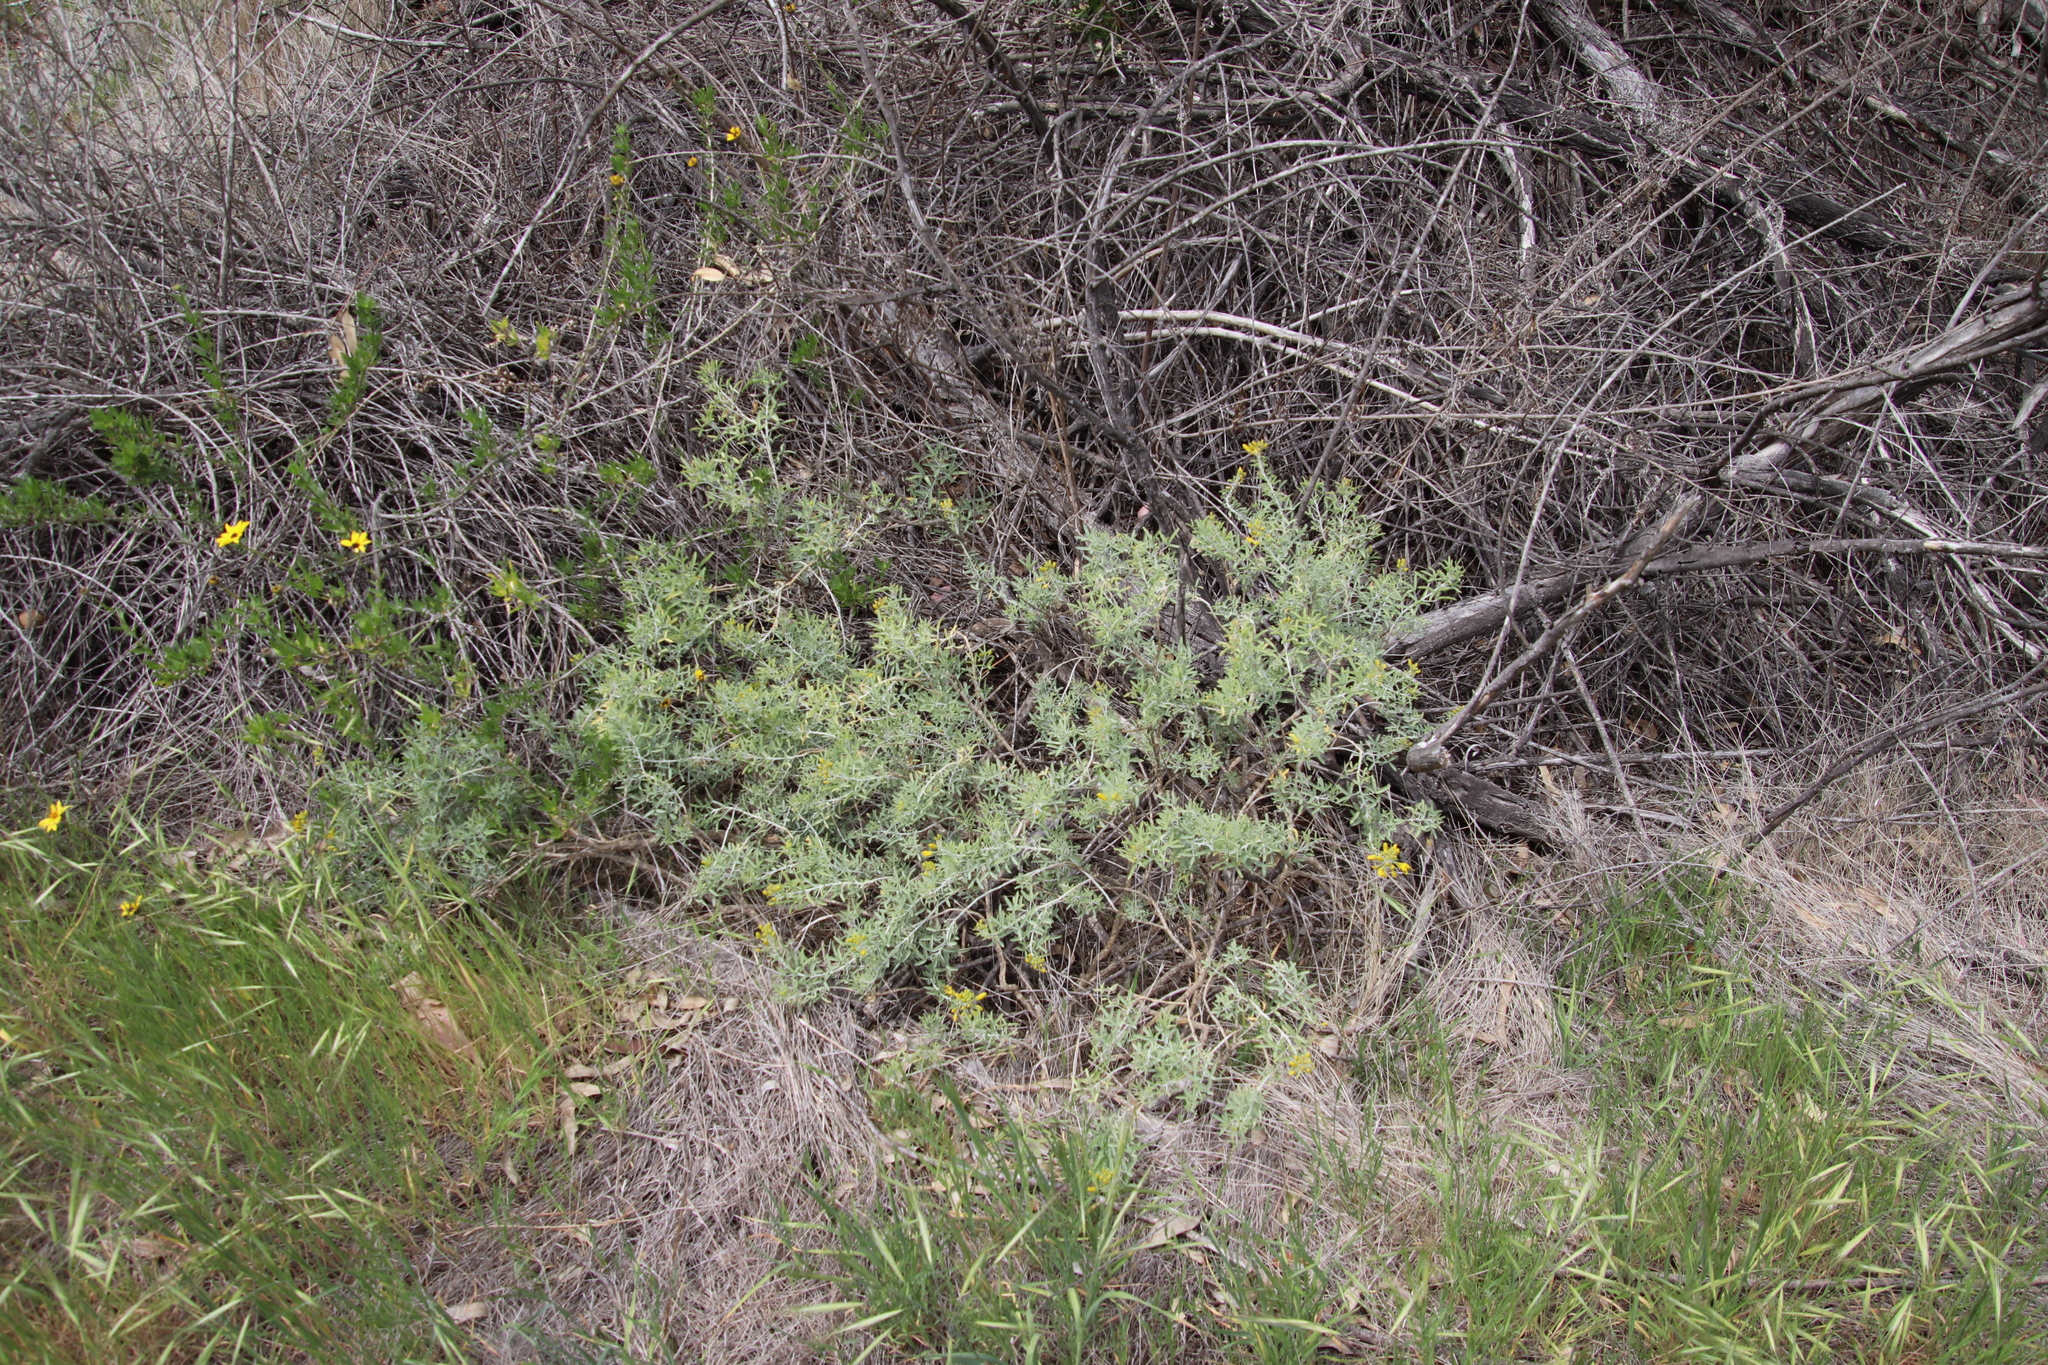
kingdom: Plantae
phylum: Tracheophyta
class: Magnoliopsida
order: Brassicales
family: Cleomaceae
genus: Cleomella
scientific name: Cleomella arborea
